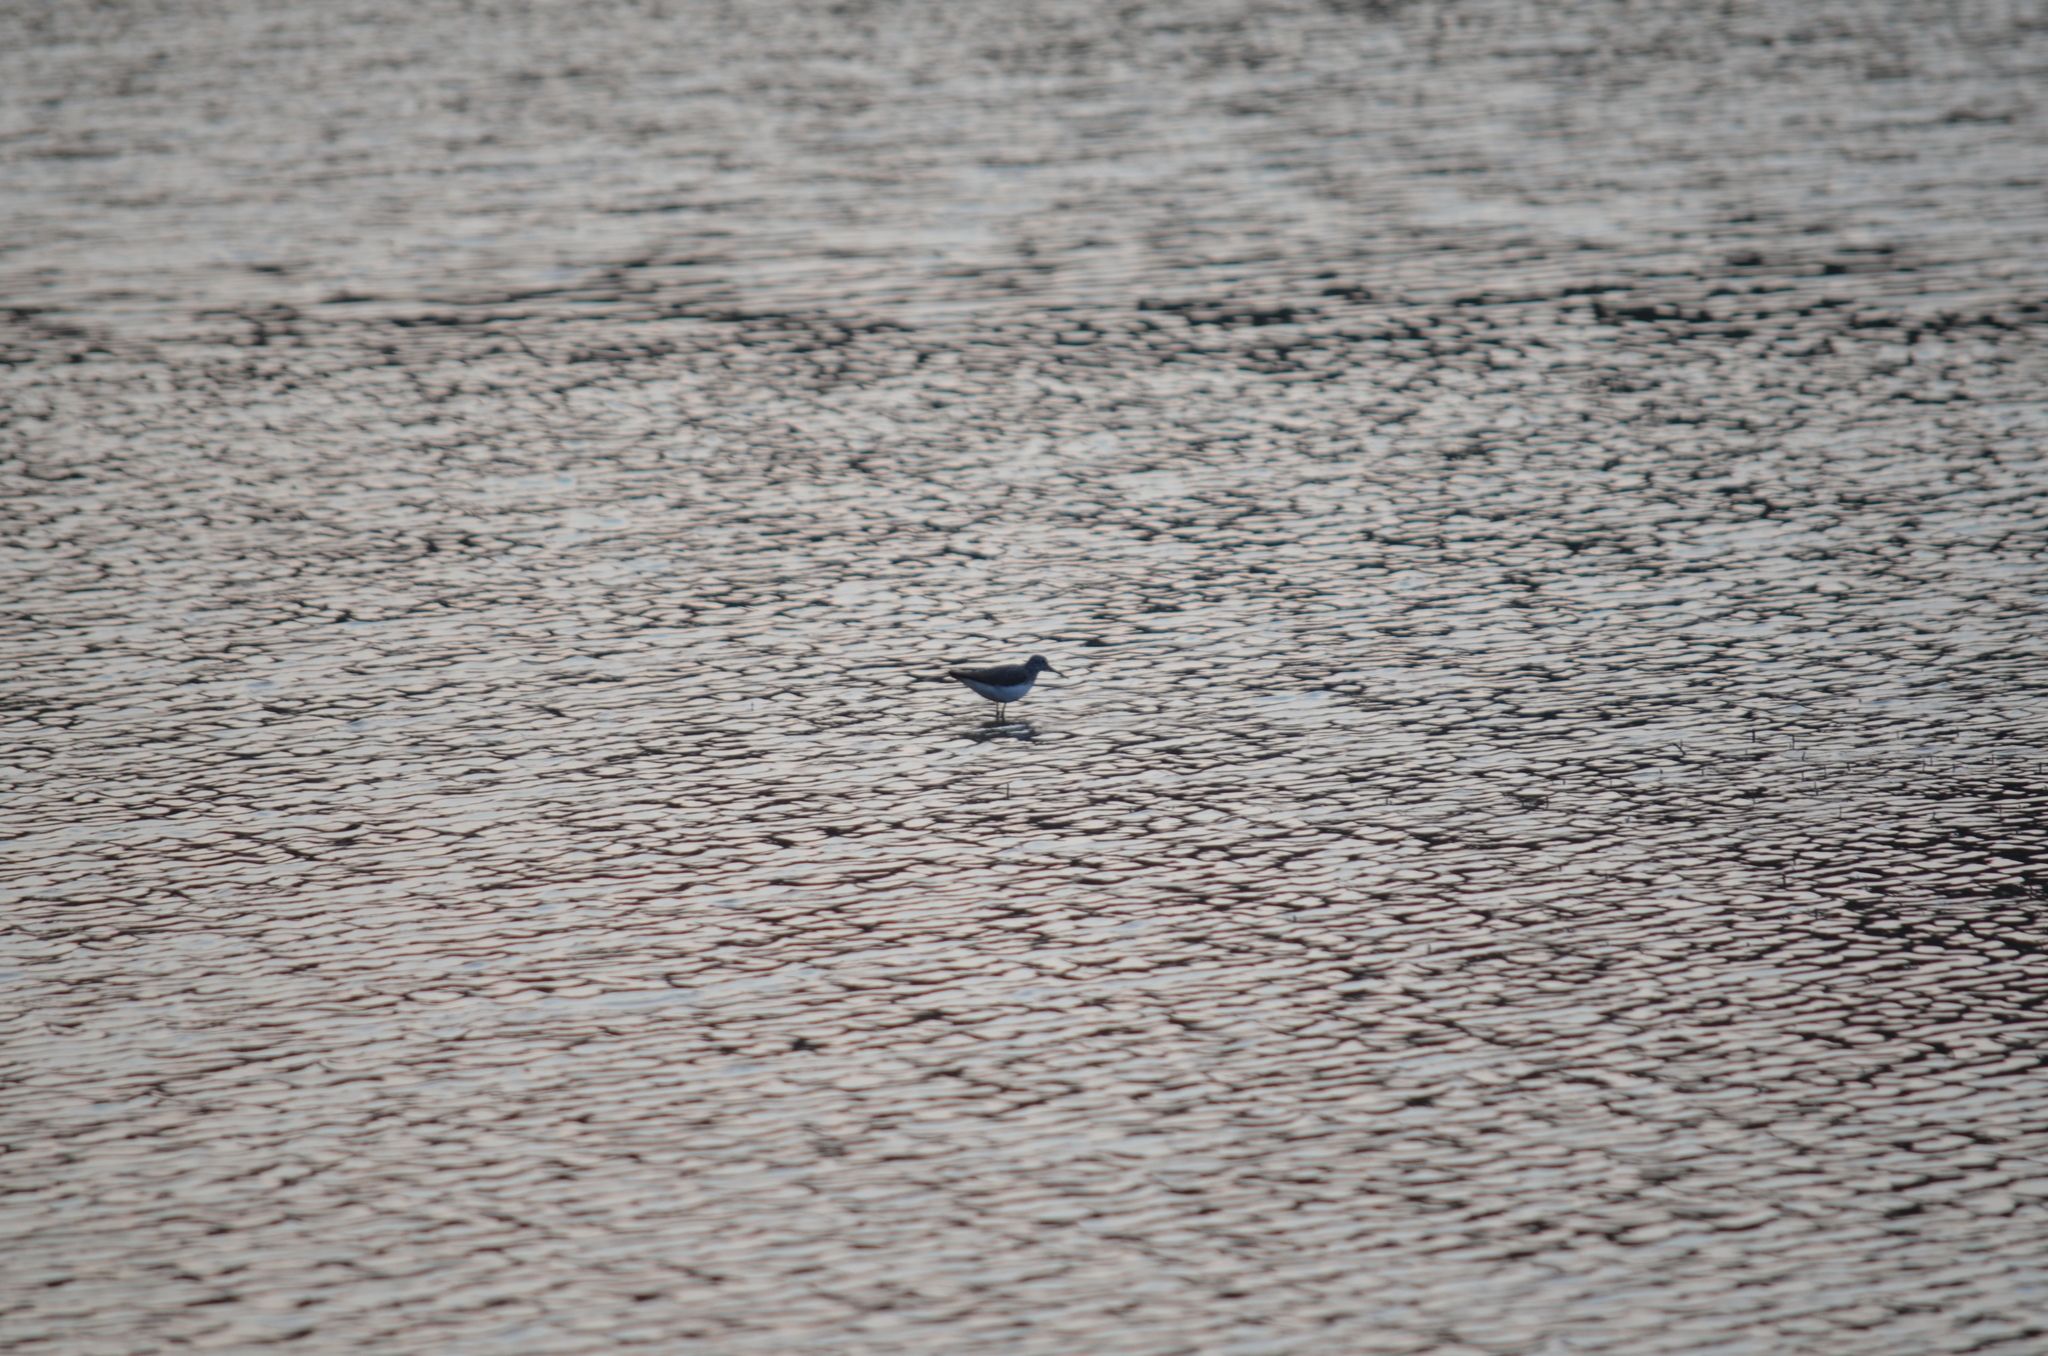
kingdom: Animalia
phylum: Chordata
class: Aves
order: Charadriiformes
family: Scolopacidae
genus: Tringa
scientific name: Tringa ochropus
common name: Green sandpiper
